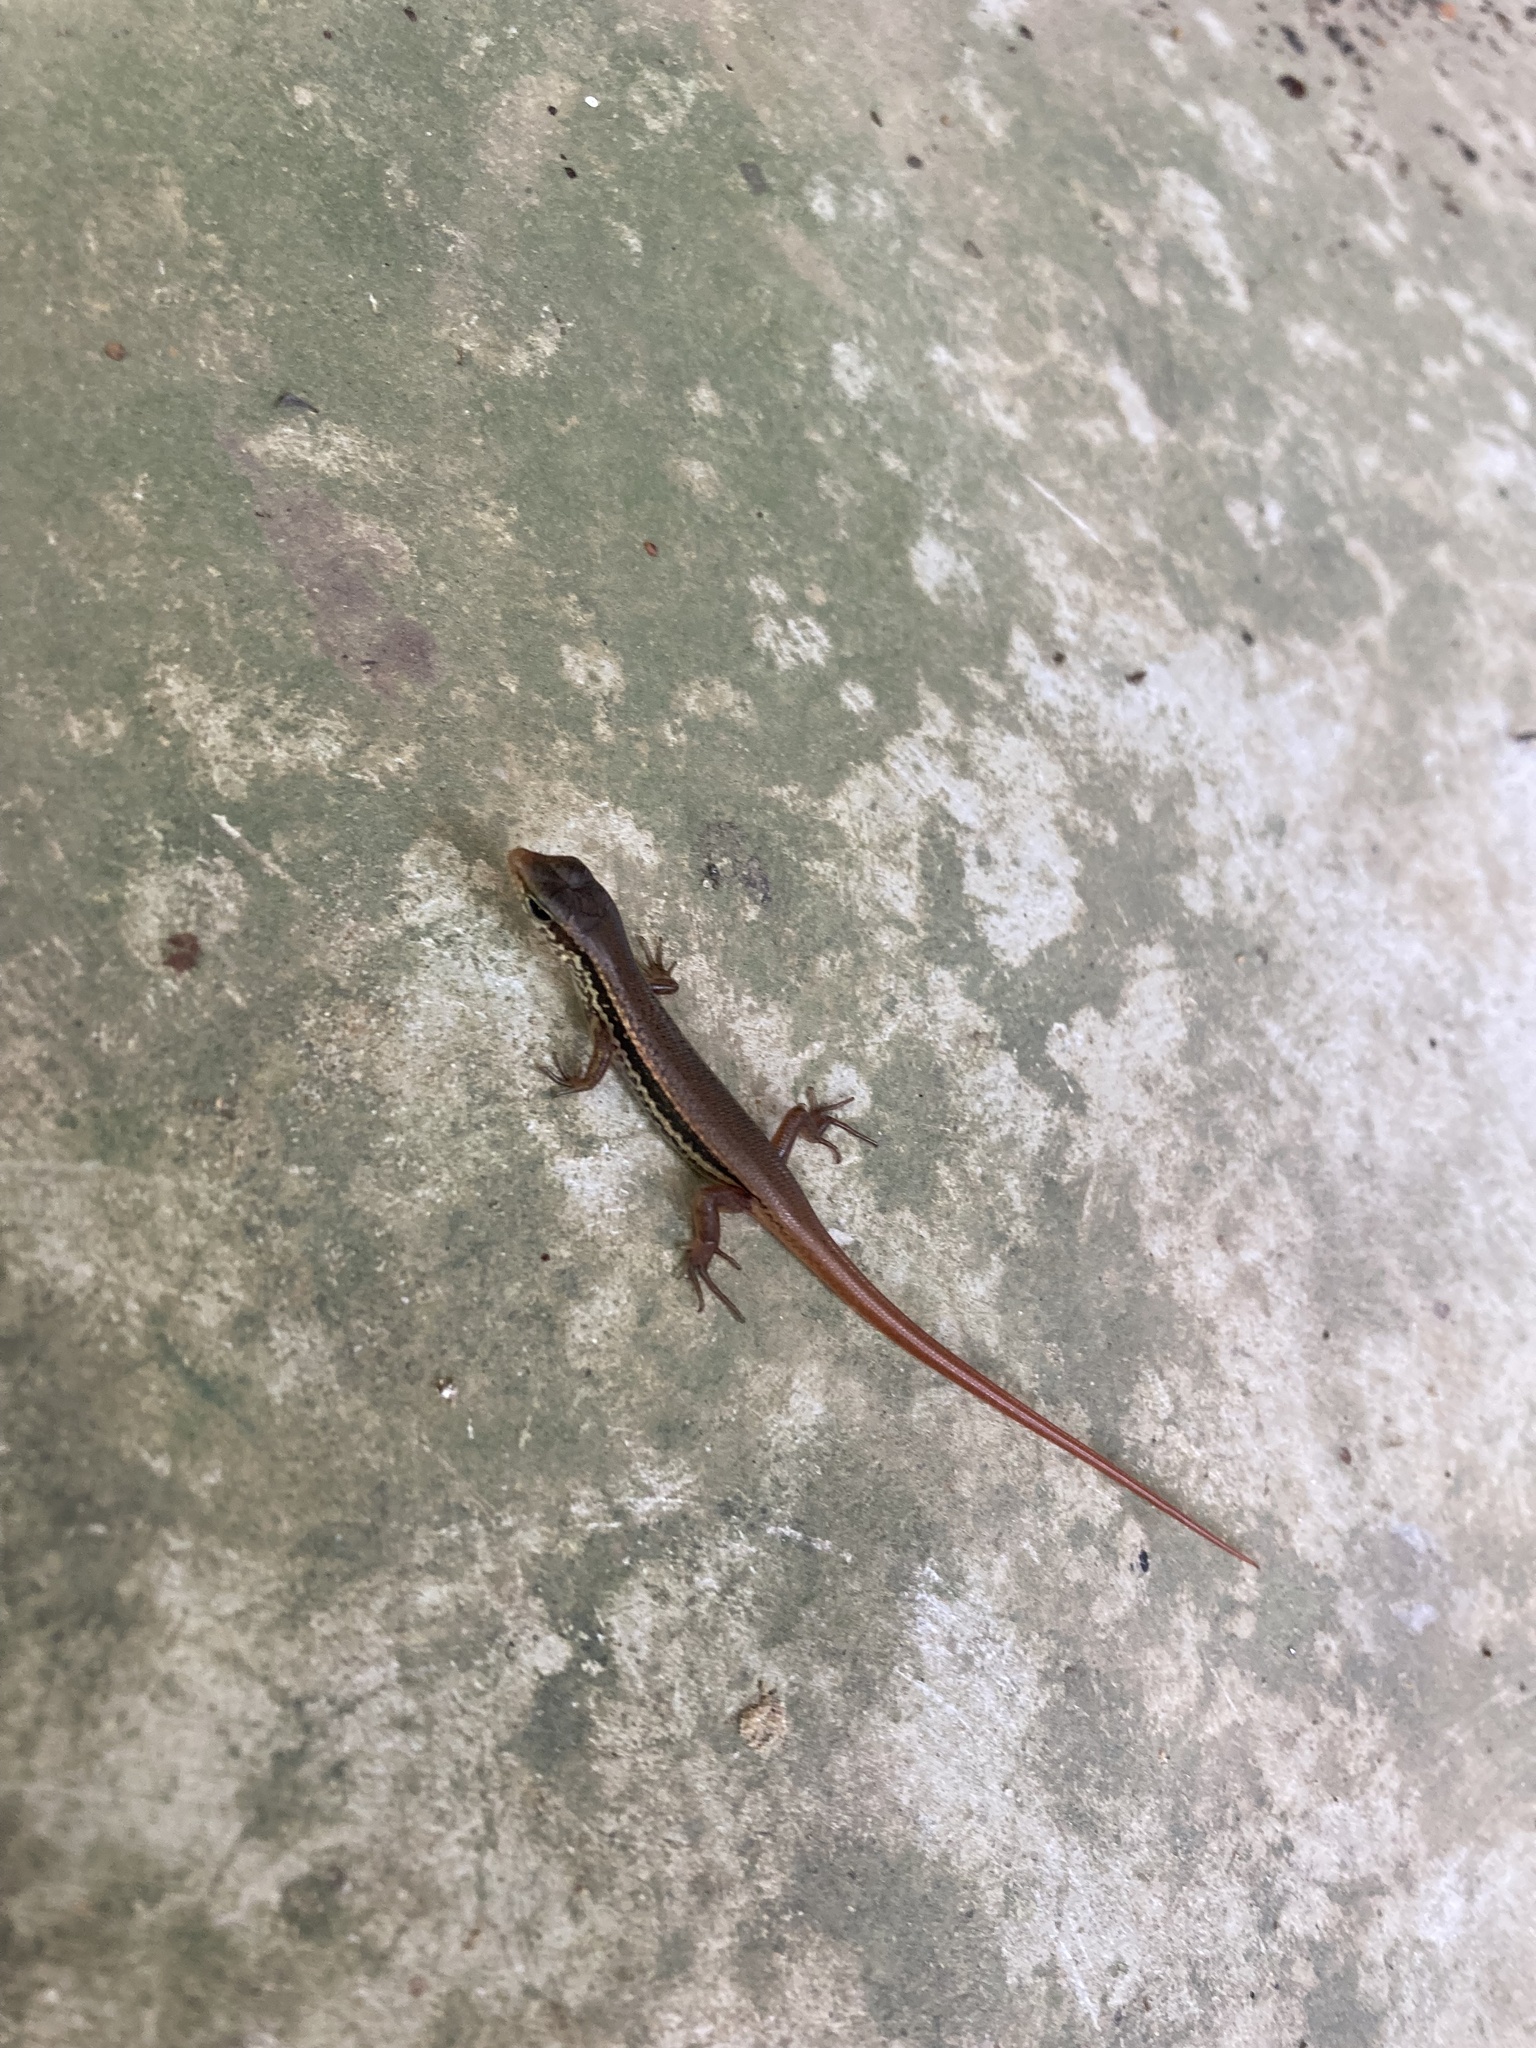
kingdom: Animalia
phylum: Chordata
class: Squamata
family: Scincidae
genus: Sphenomorphus
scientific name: Sphenomorphus indicus
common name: Himalayan forest skink
